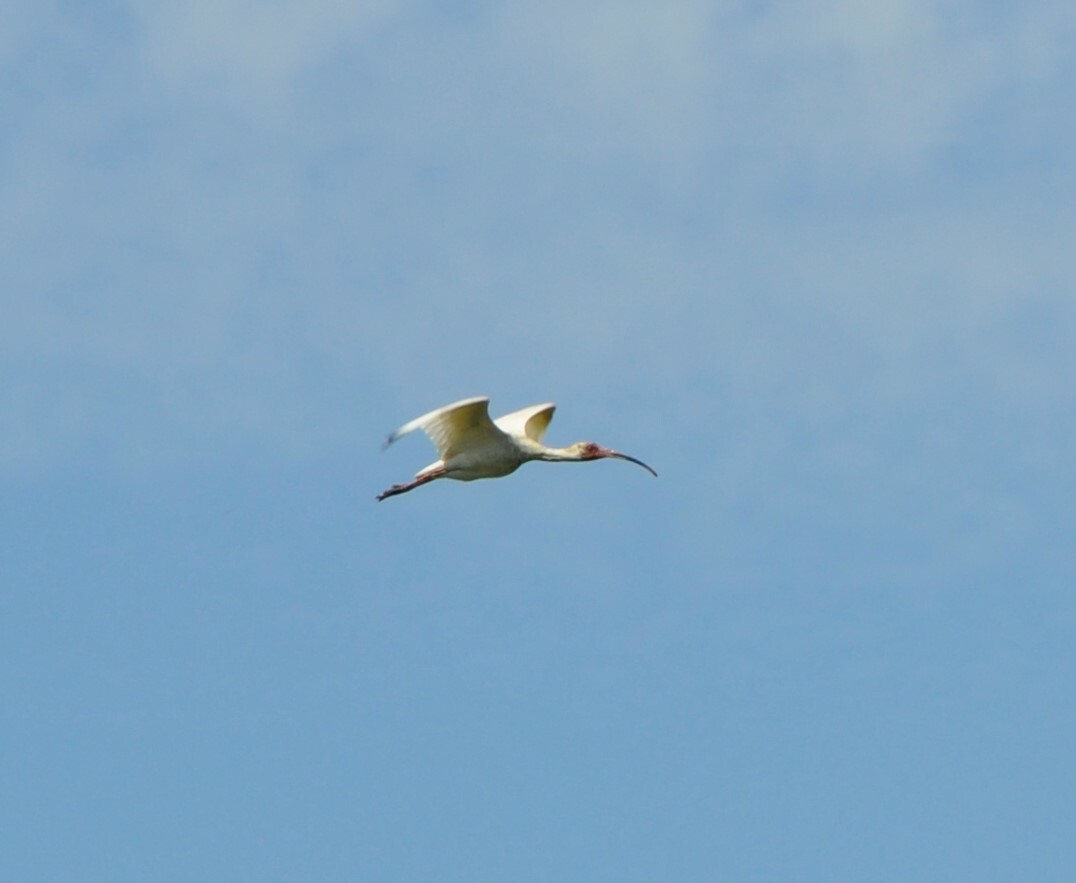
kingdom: Animalia
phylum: Chordata
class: Aves
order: Pelecaniformes
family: Threskiornithidae
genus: Eudocimus
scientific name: Eudocimus albus
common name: White ibis
